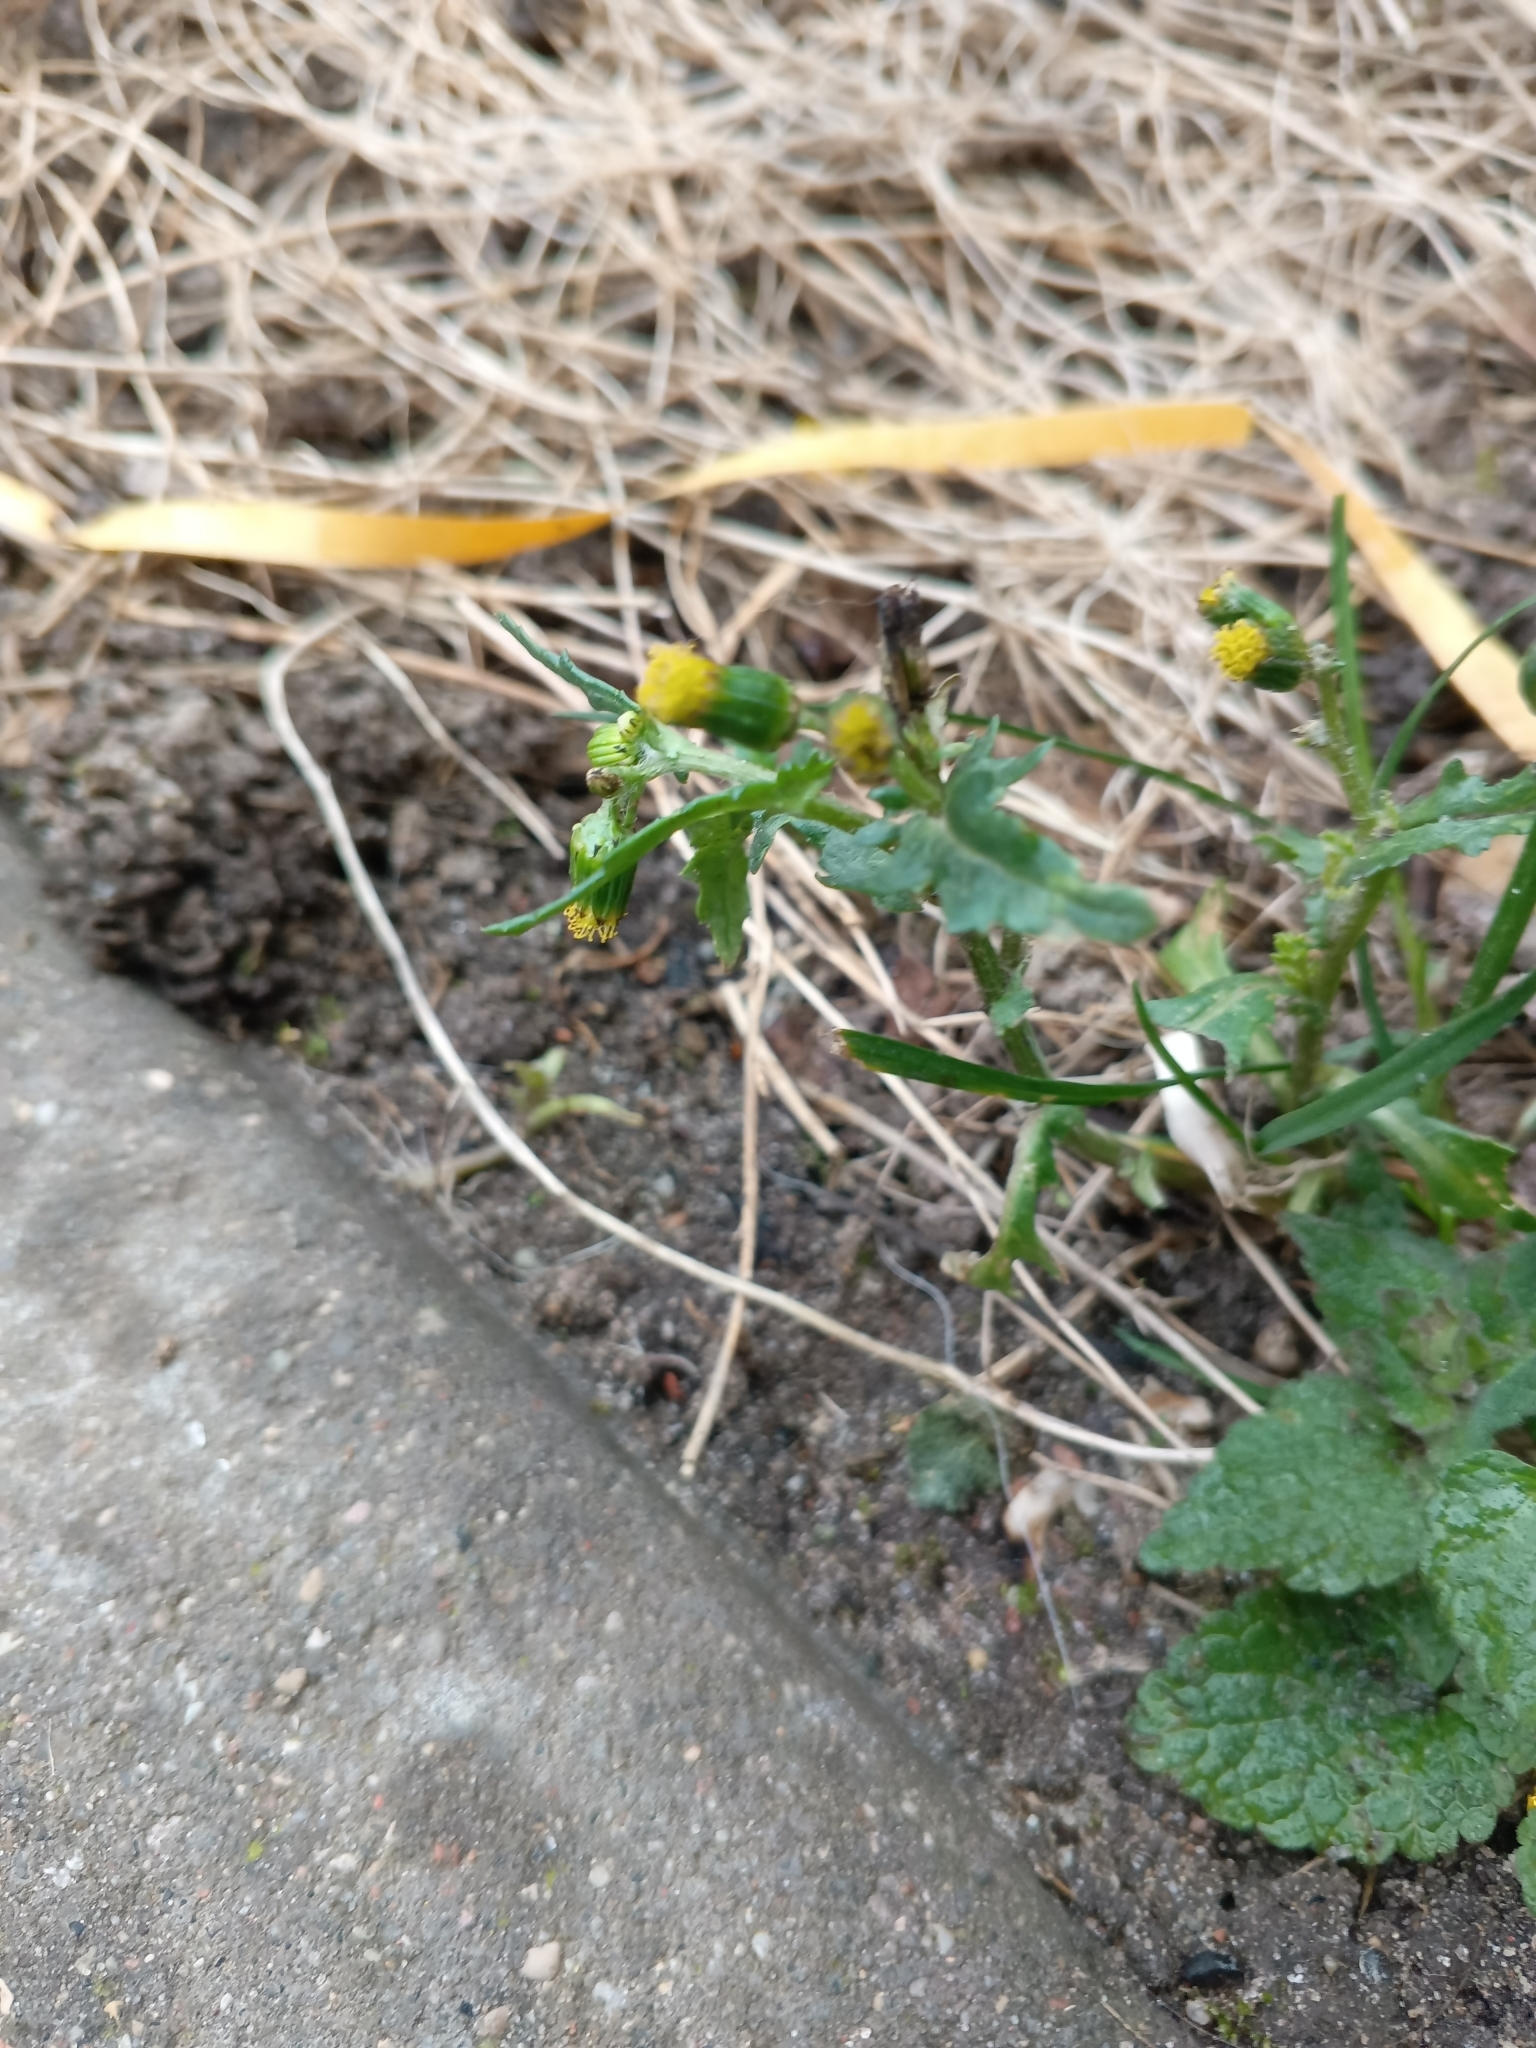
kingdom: Plantae
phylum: Tracheophyta
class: Magnoliopsida
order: Asterales
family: Asteraceae
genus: Senecio
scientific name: Senecio vulgaris
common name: Old-man-in-the-spring
